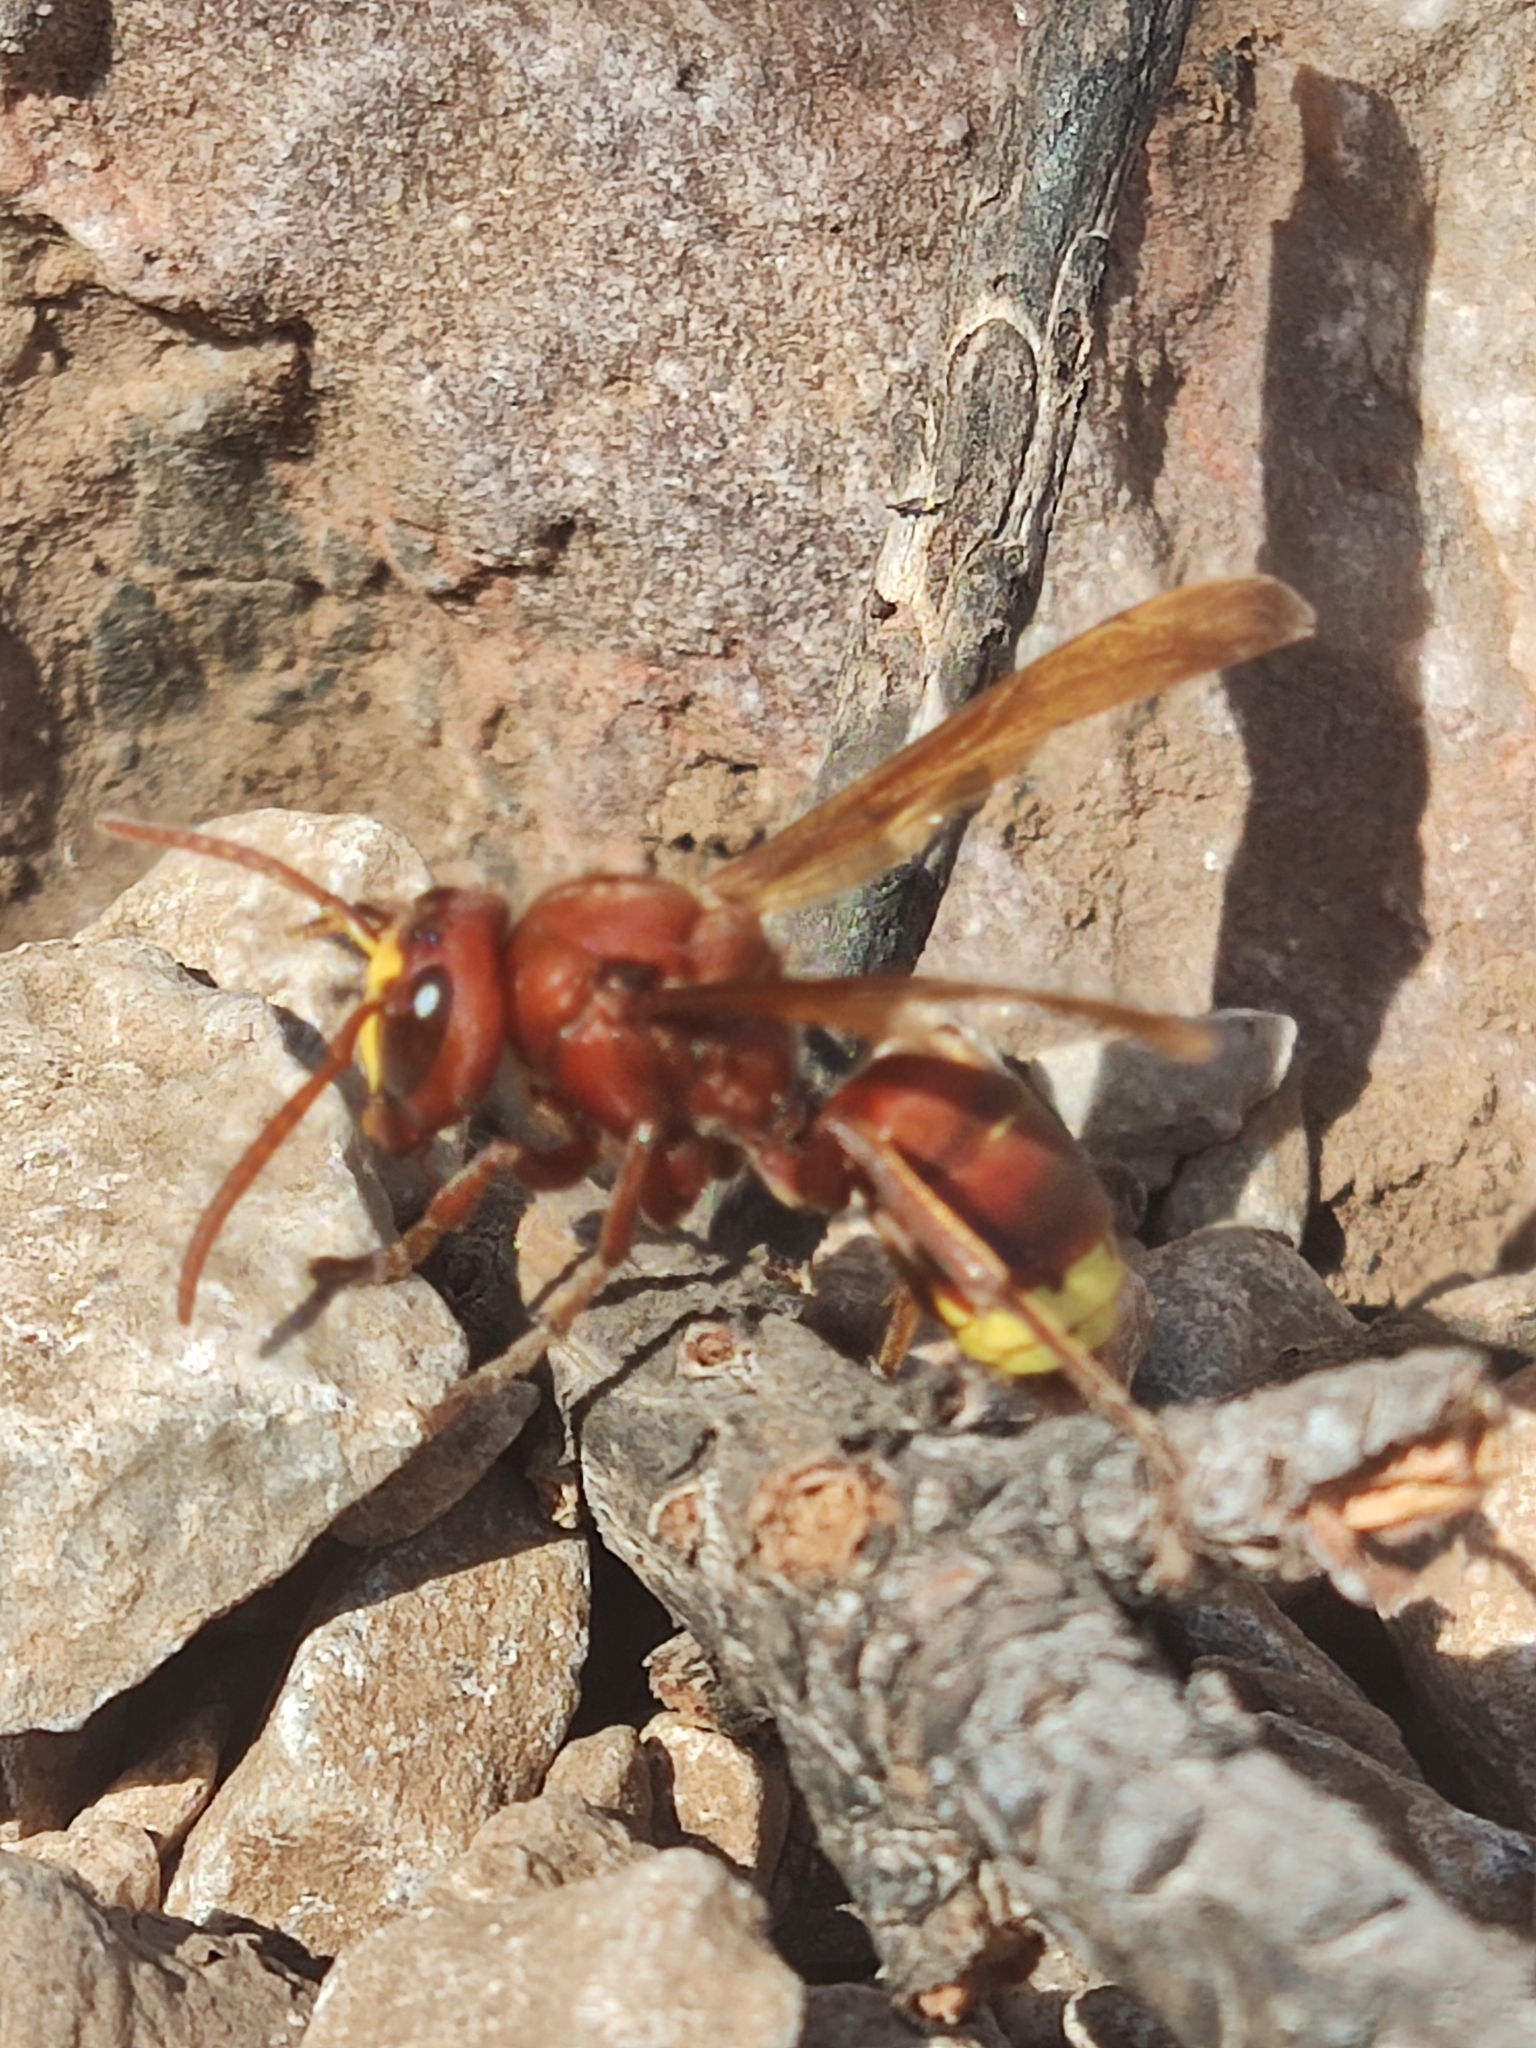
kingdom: Animalia
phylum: Arthropoda
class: Insecta
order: Hymenoptera
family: Vespidae
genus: Vespa
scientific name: Vespa orientalis
